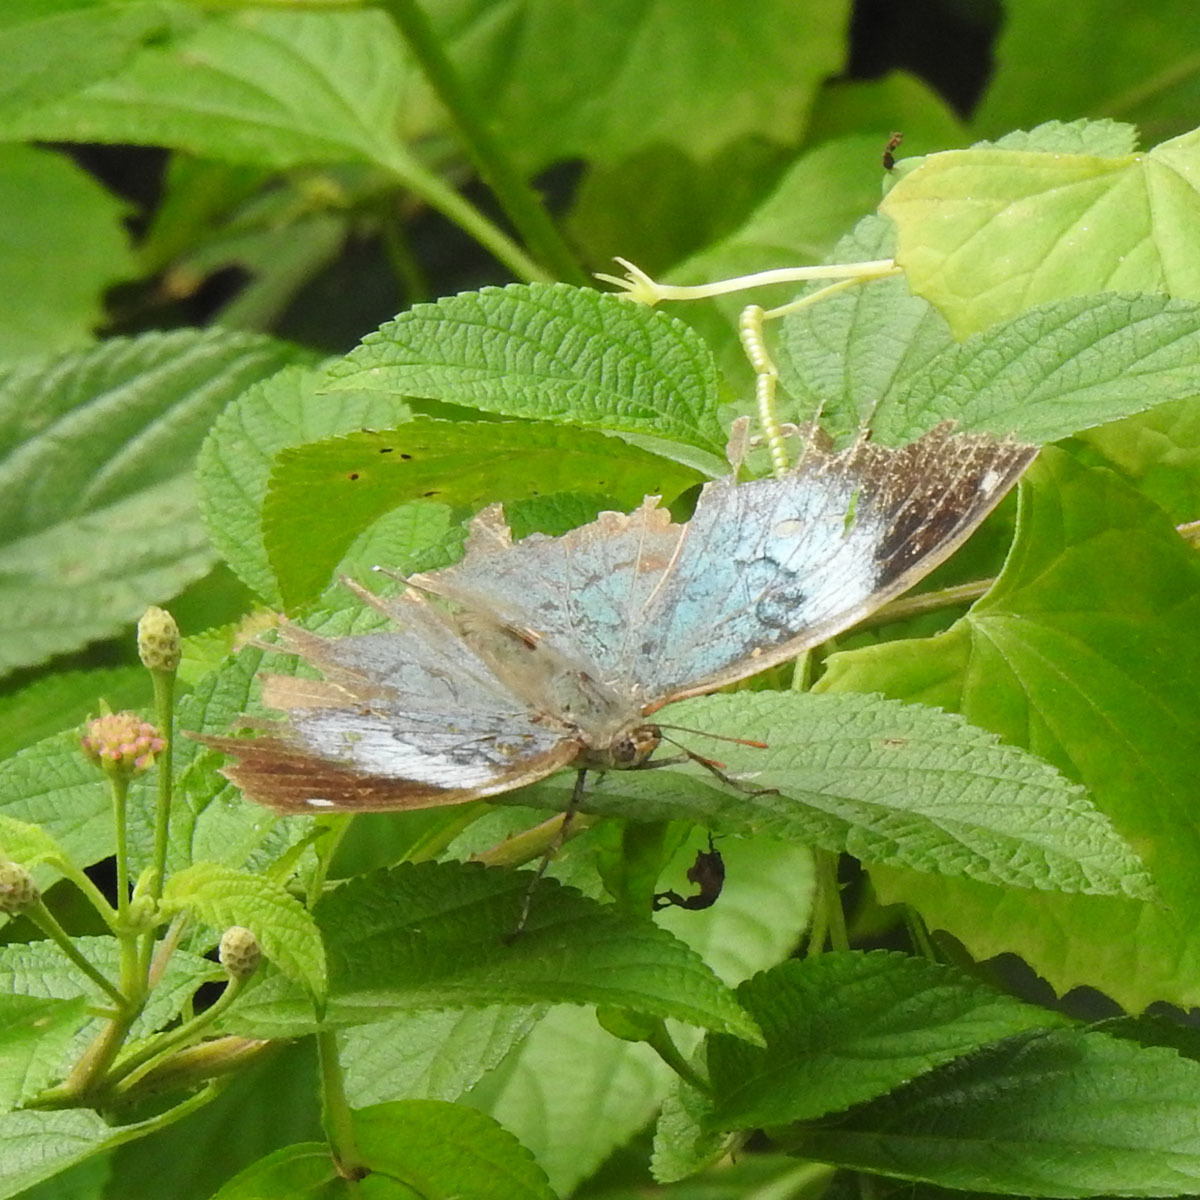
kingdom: Animalia
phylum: Arthropoda
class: Insecta
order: Lepidoptera
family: Nymphalidae
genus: Kallima
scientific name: Kallima horsfieldii
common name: Sahyadri blue oakleaf
